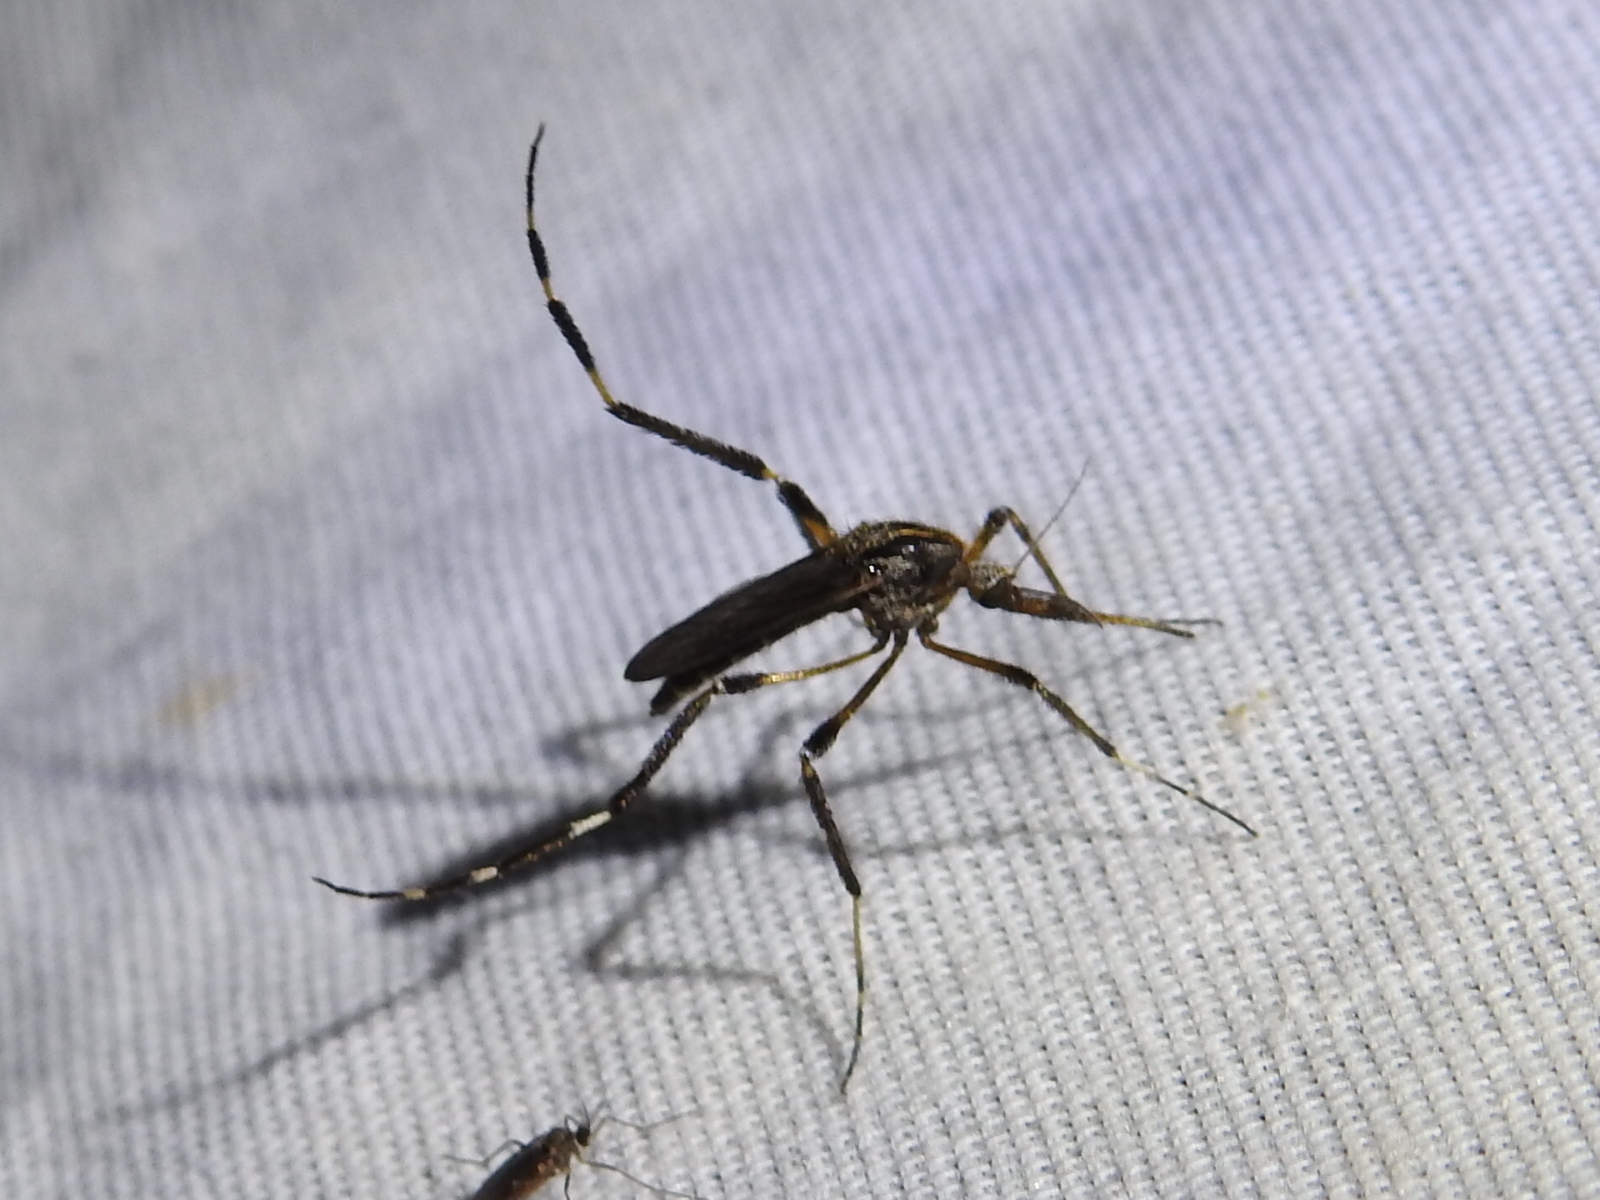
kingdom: Animalia
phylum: Arthropoda
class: Insecta
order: Diptera
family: Culicidae
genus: Psorophora
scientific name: Psorophora ciliata
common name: Gallinipper
